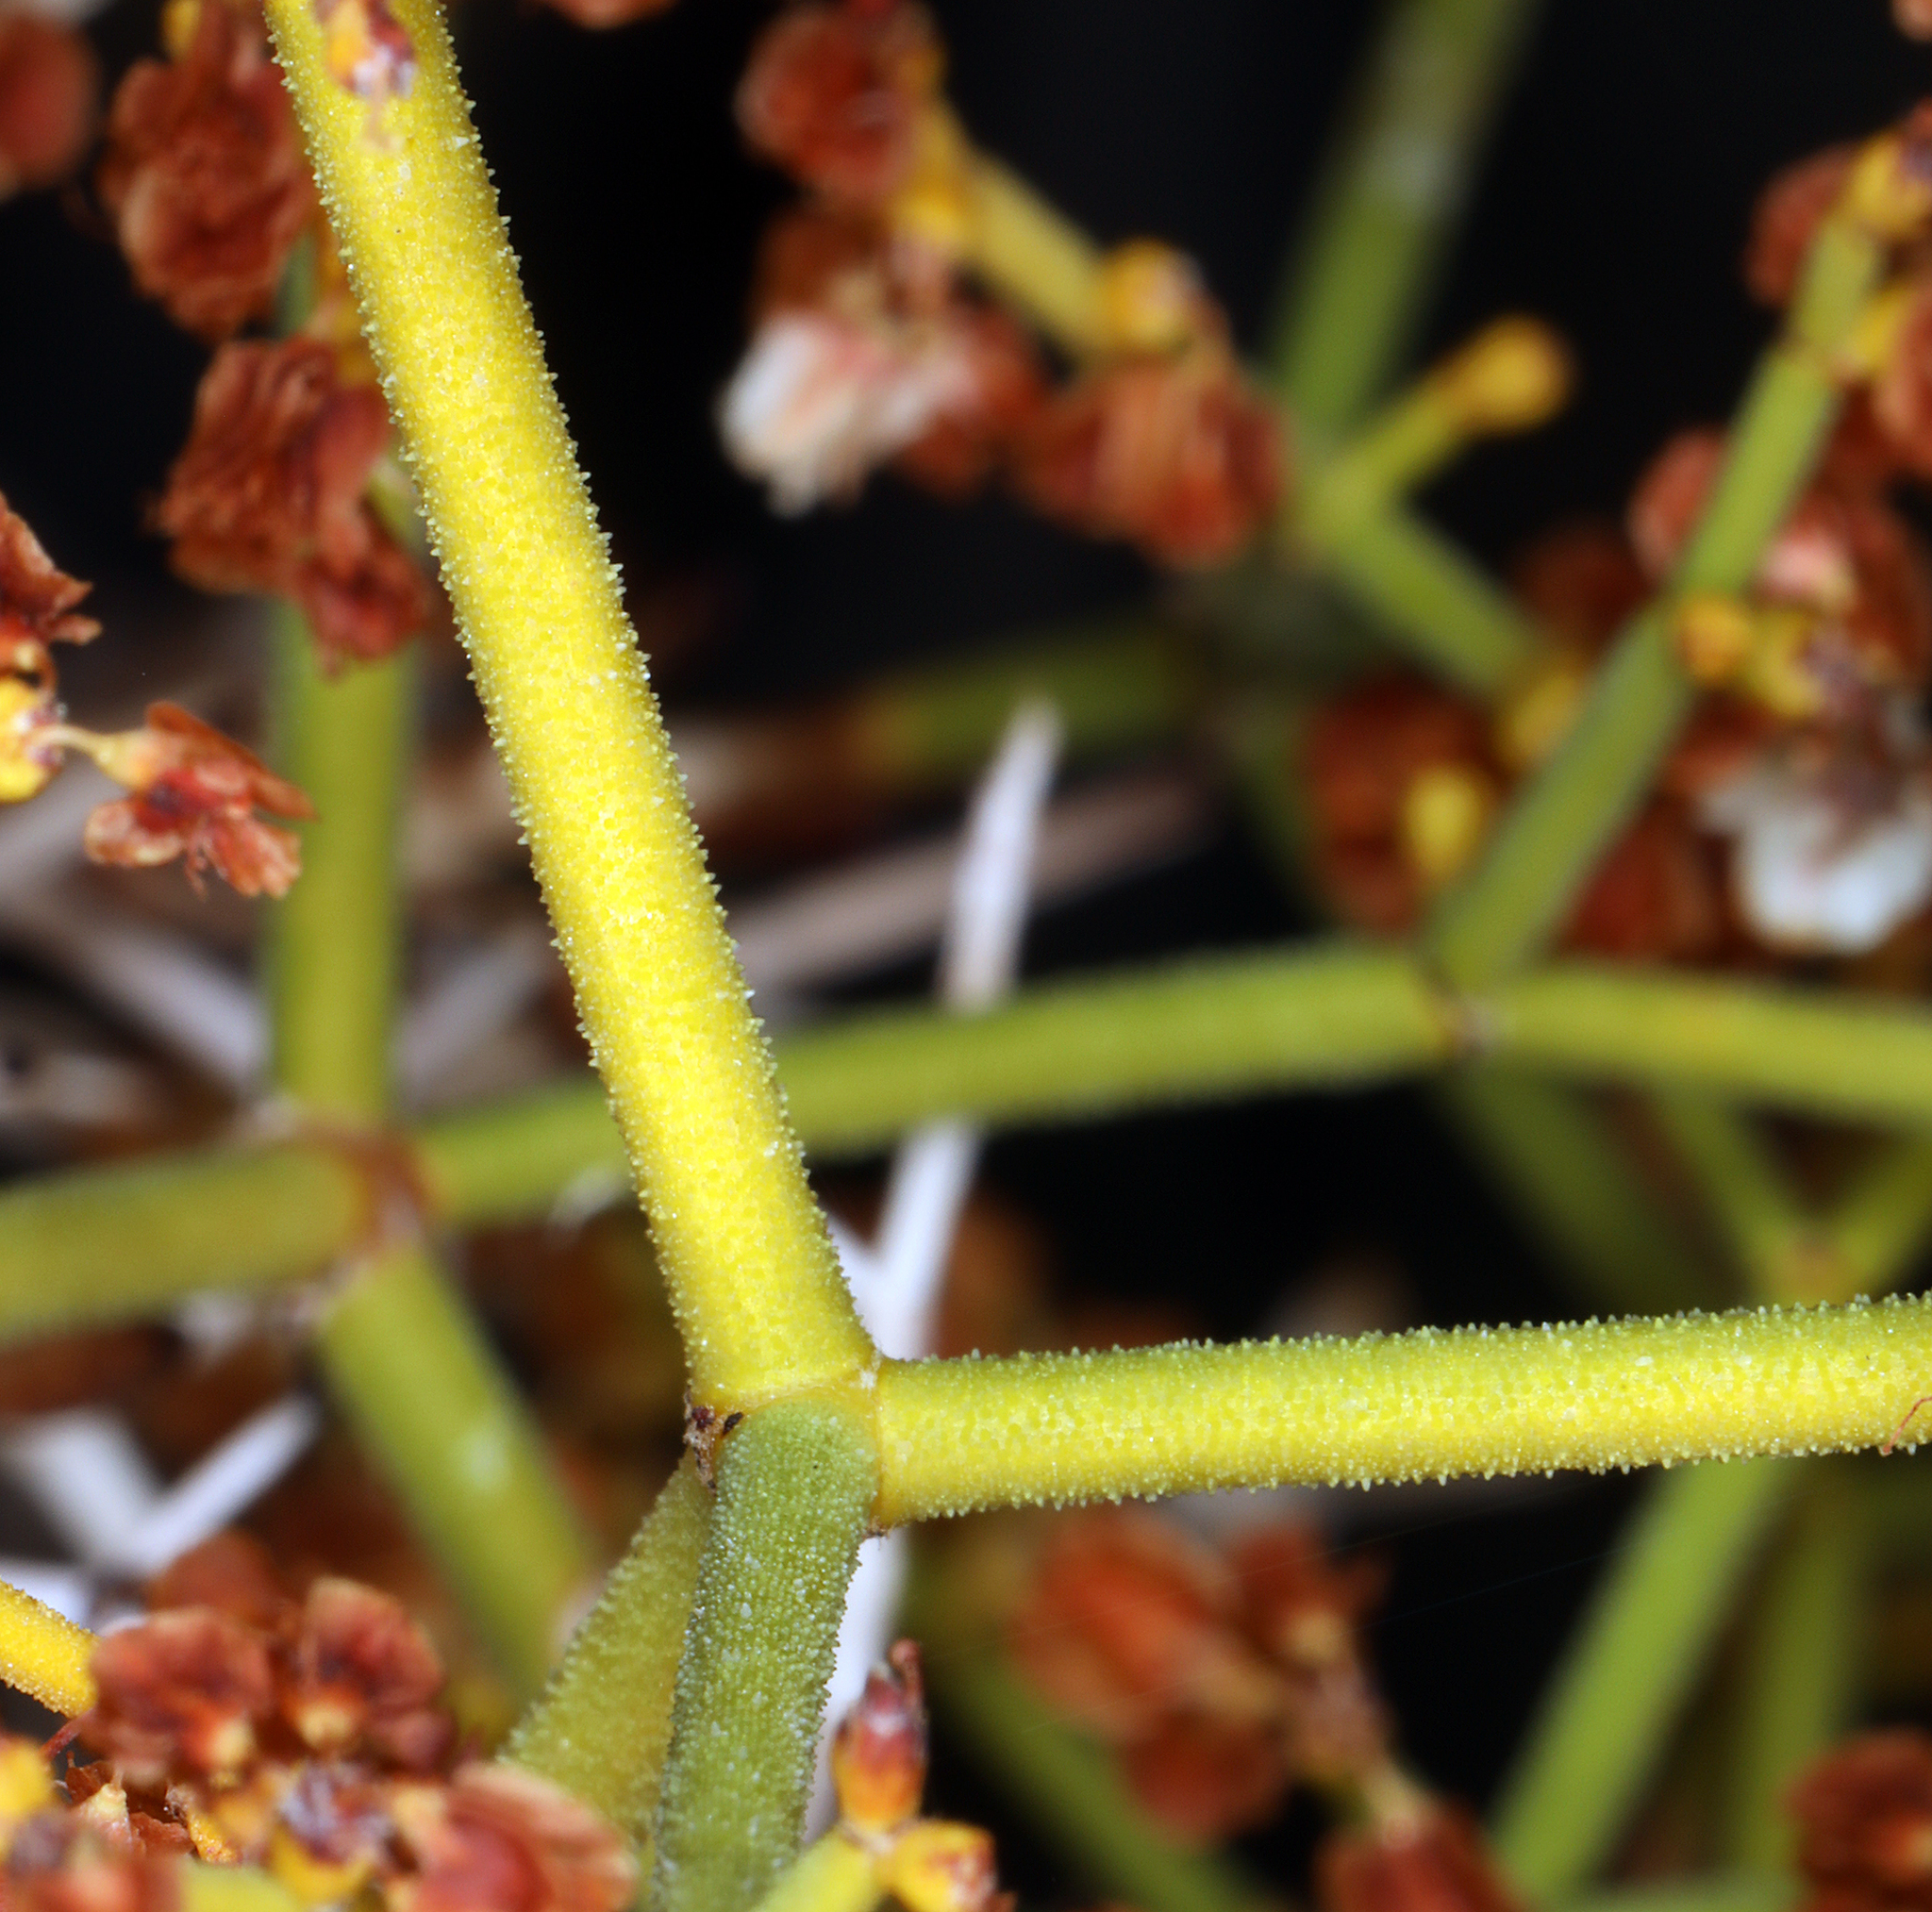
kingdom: Plantae
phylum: Tracheophyta
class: Magnoliopsida
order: Caryophyllales
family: Polygonaceae
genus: Eriogonum
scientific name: Eriogonum heermannii
